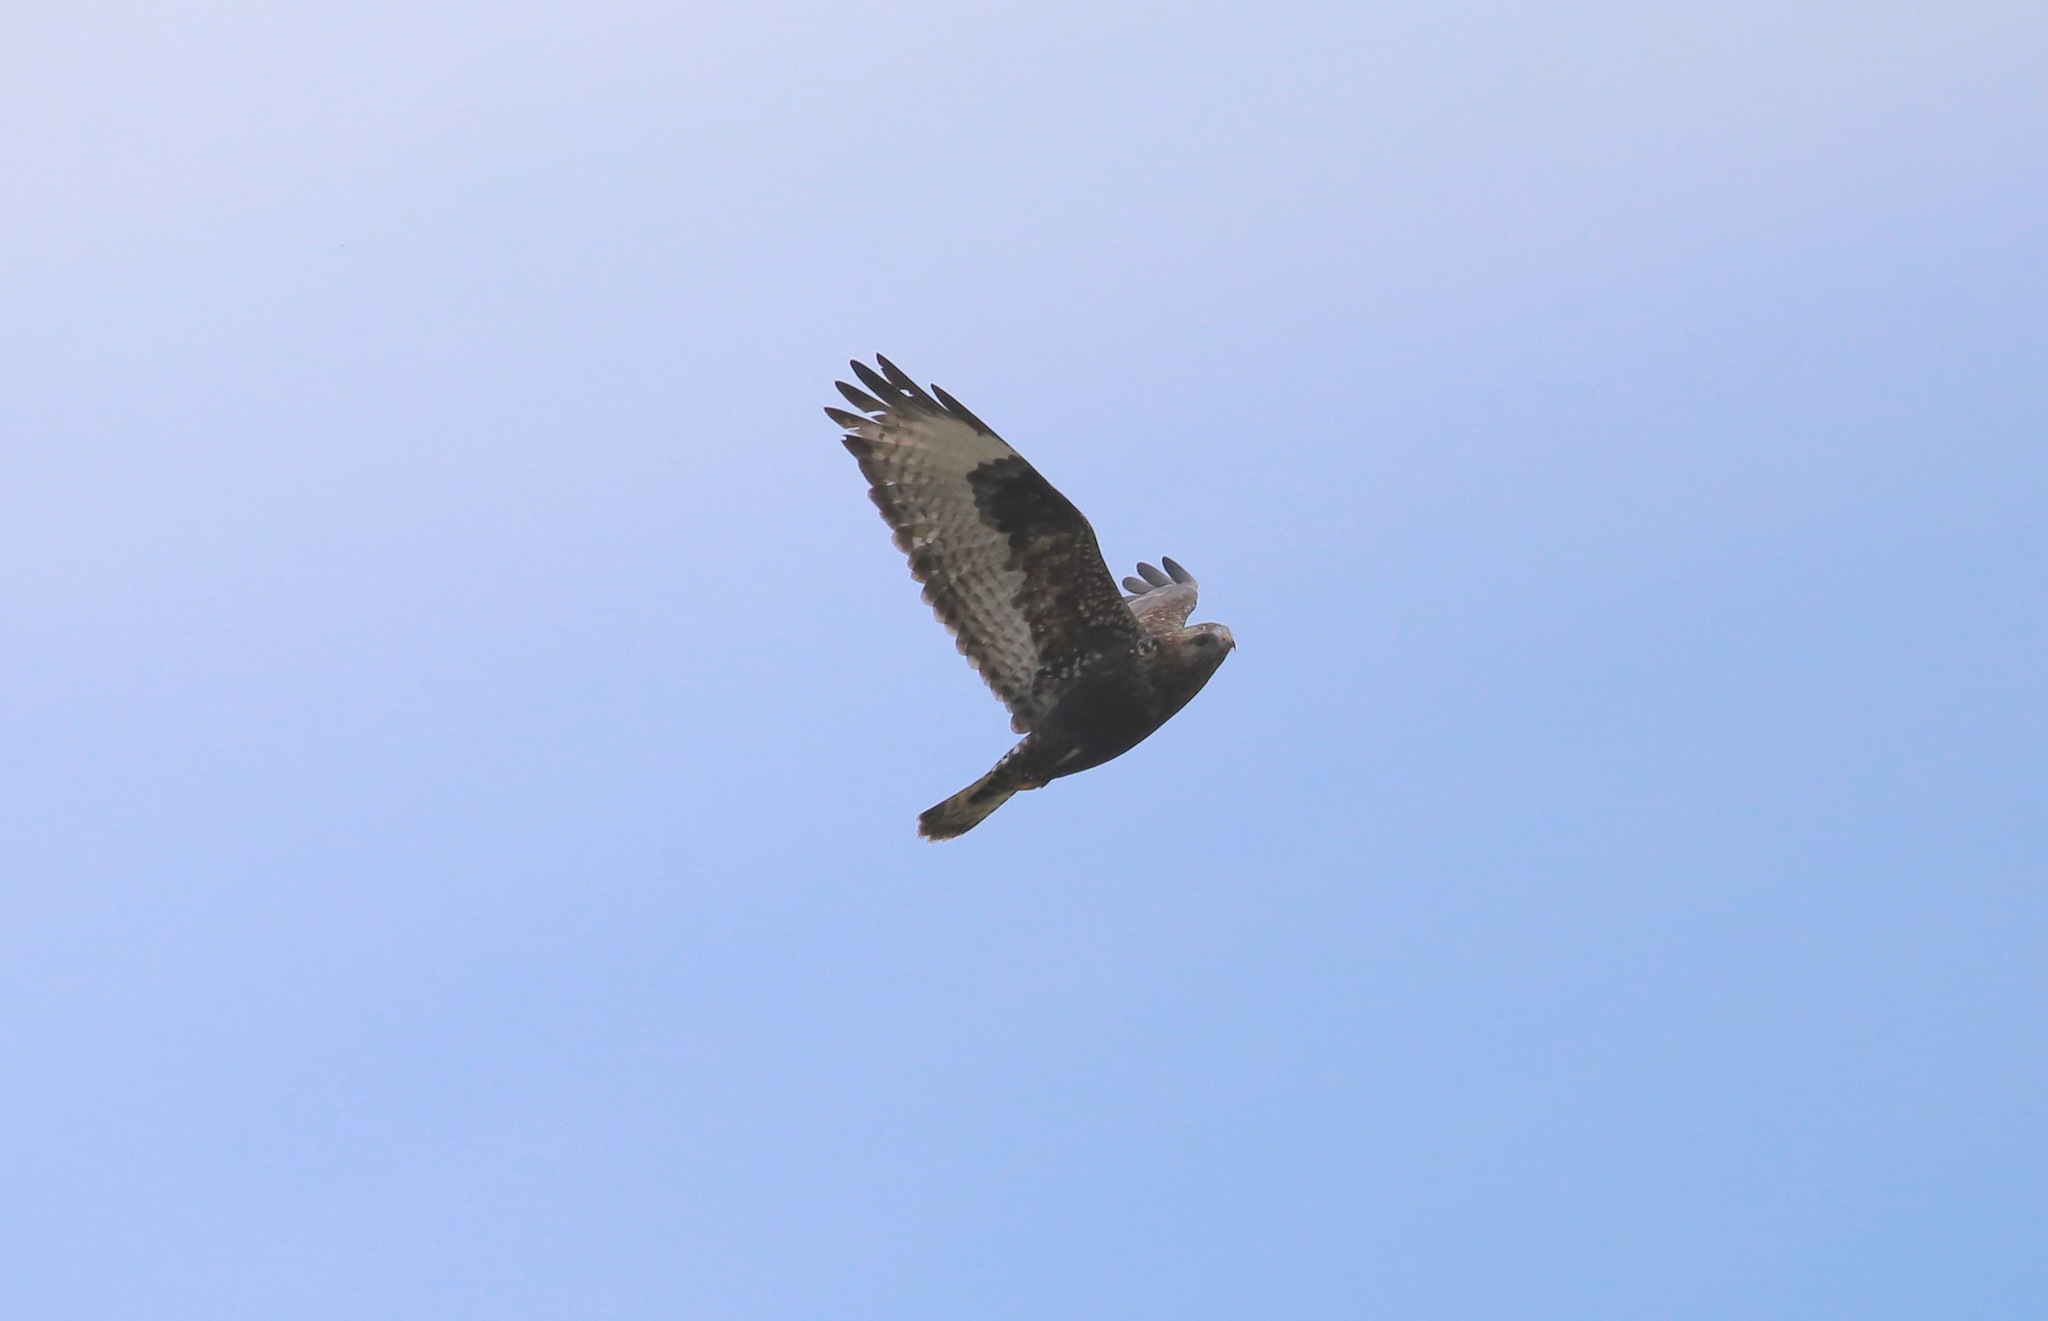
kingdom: Animalia
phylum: Chordata
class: Aves
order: Accipitriformes
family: Accipitridae
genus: Buteo
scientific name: Buteo lagopus
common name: Rough-legged buzzard
